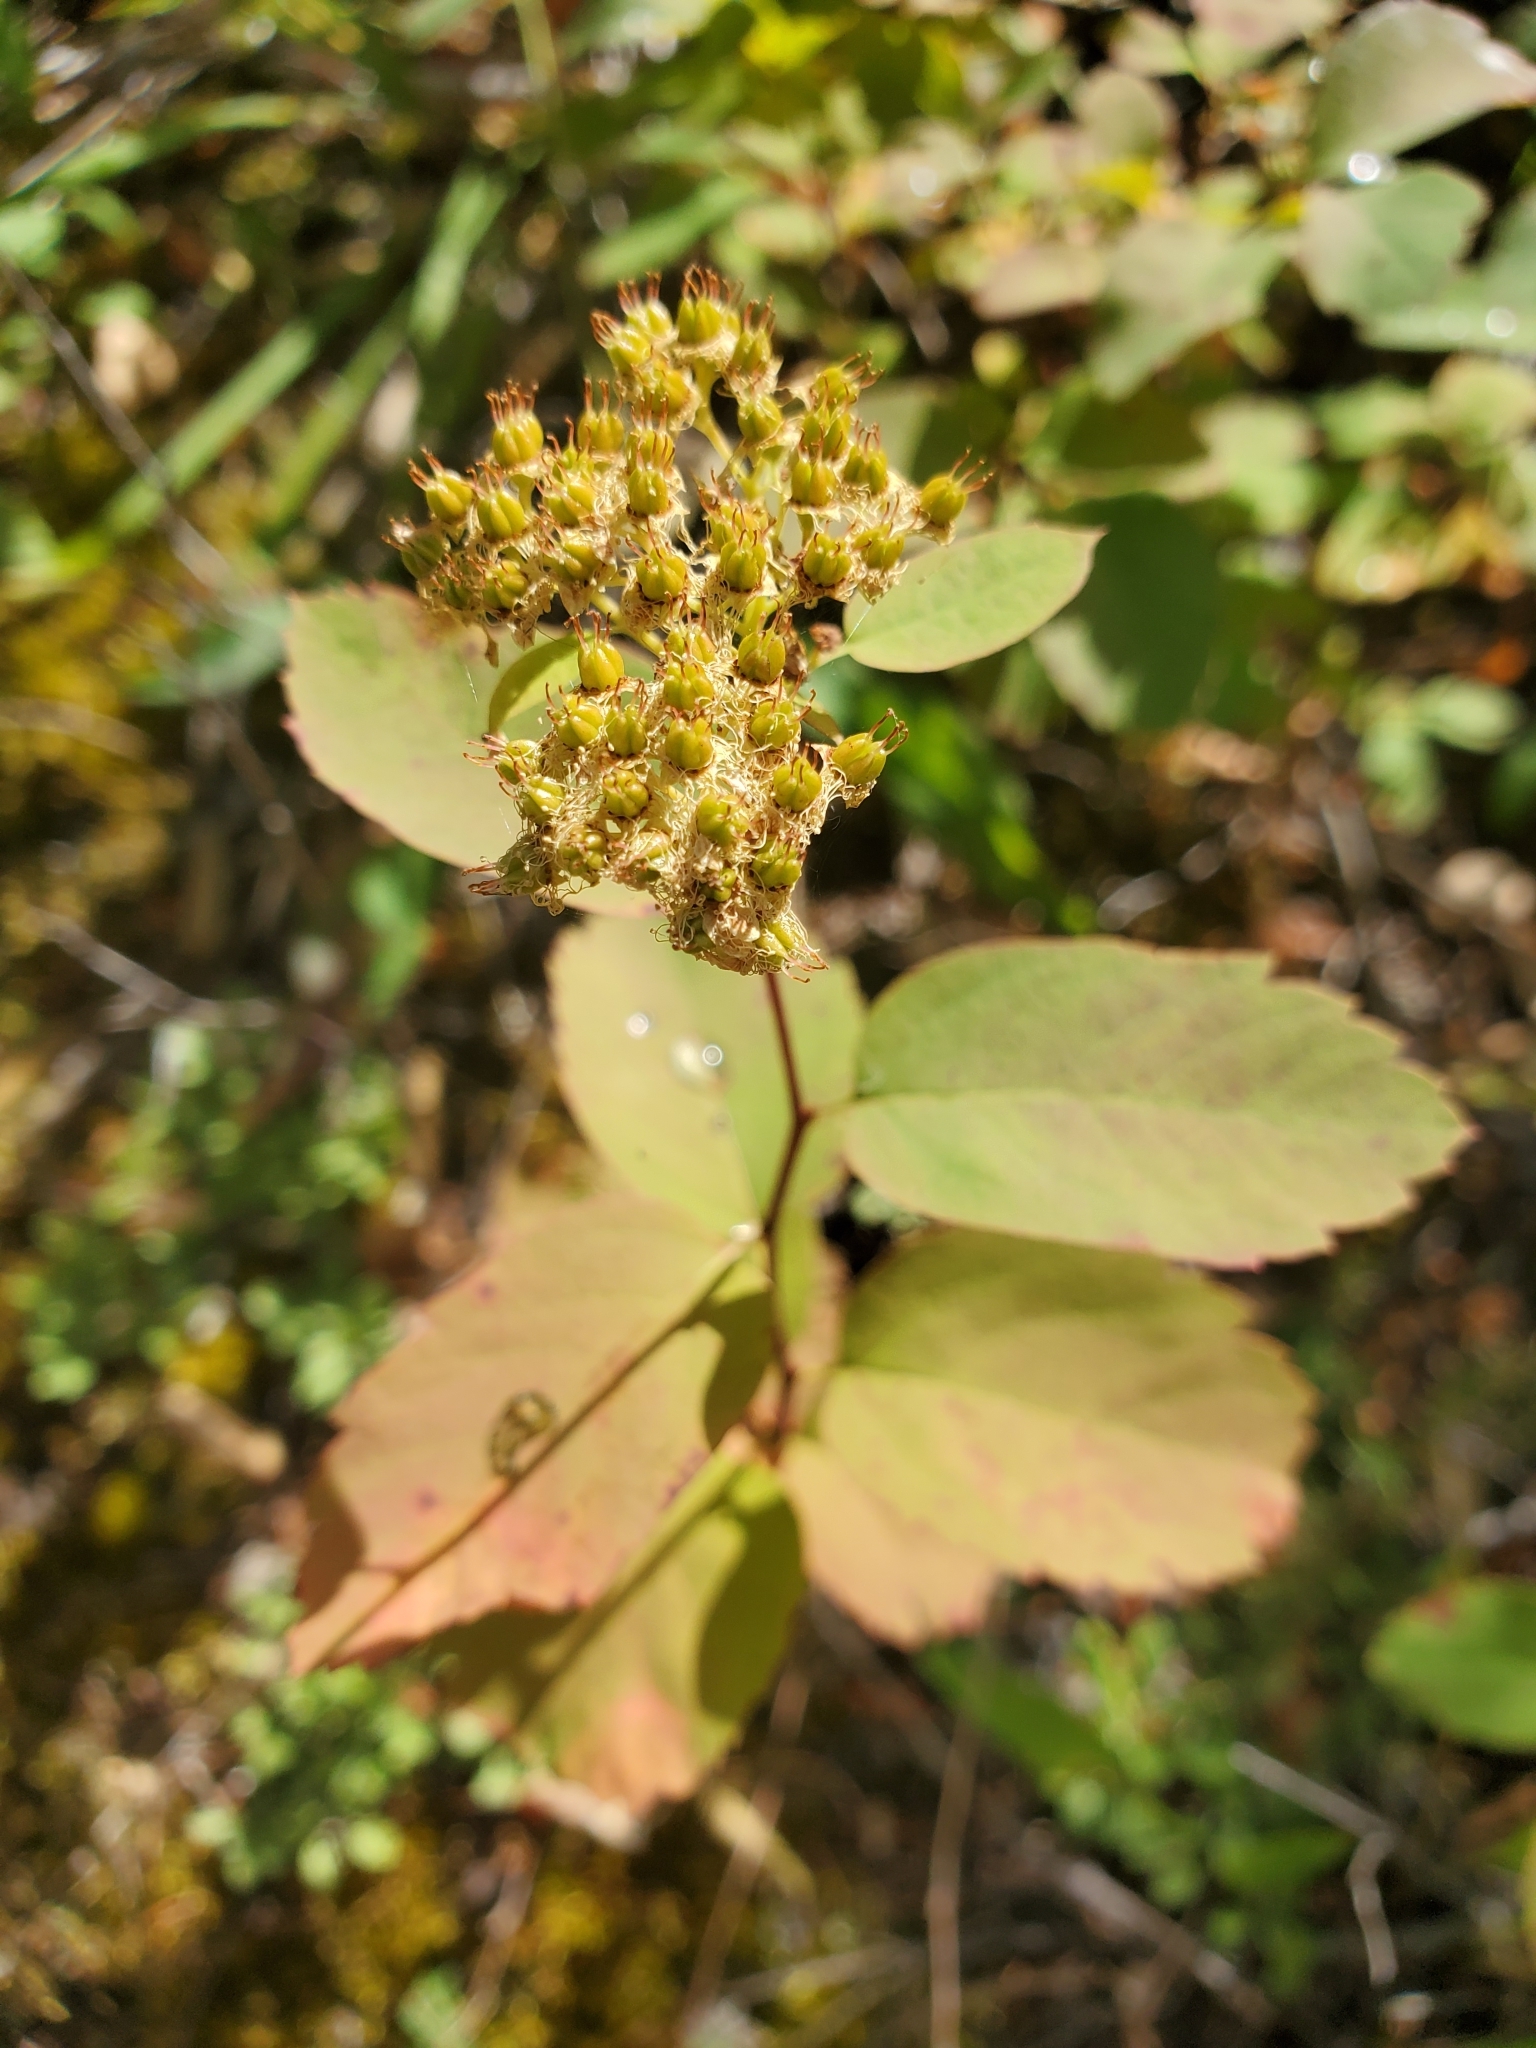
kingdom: Plantae
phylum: Tracheophyta
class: Magnoliopsida
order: Rosales
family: Rosaceae
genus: Spiraea
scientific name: Spiraea lucida
